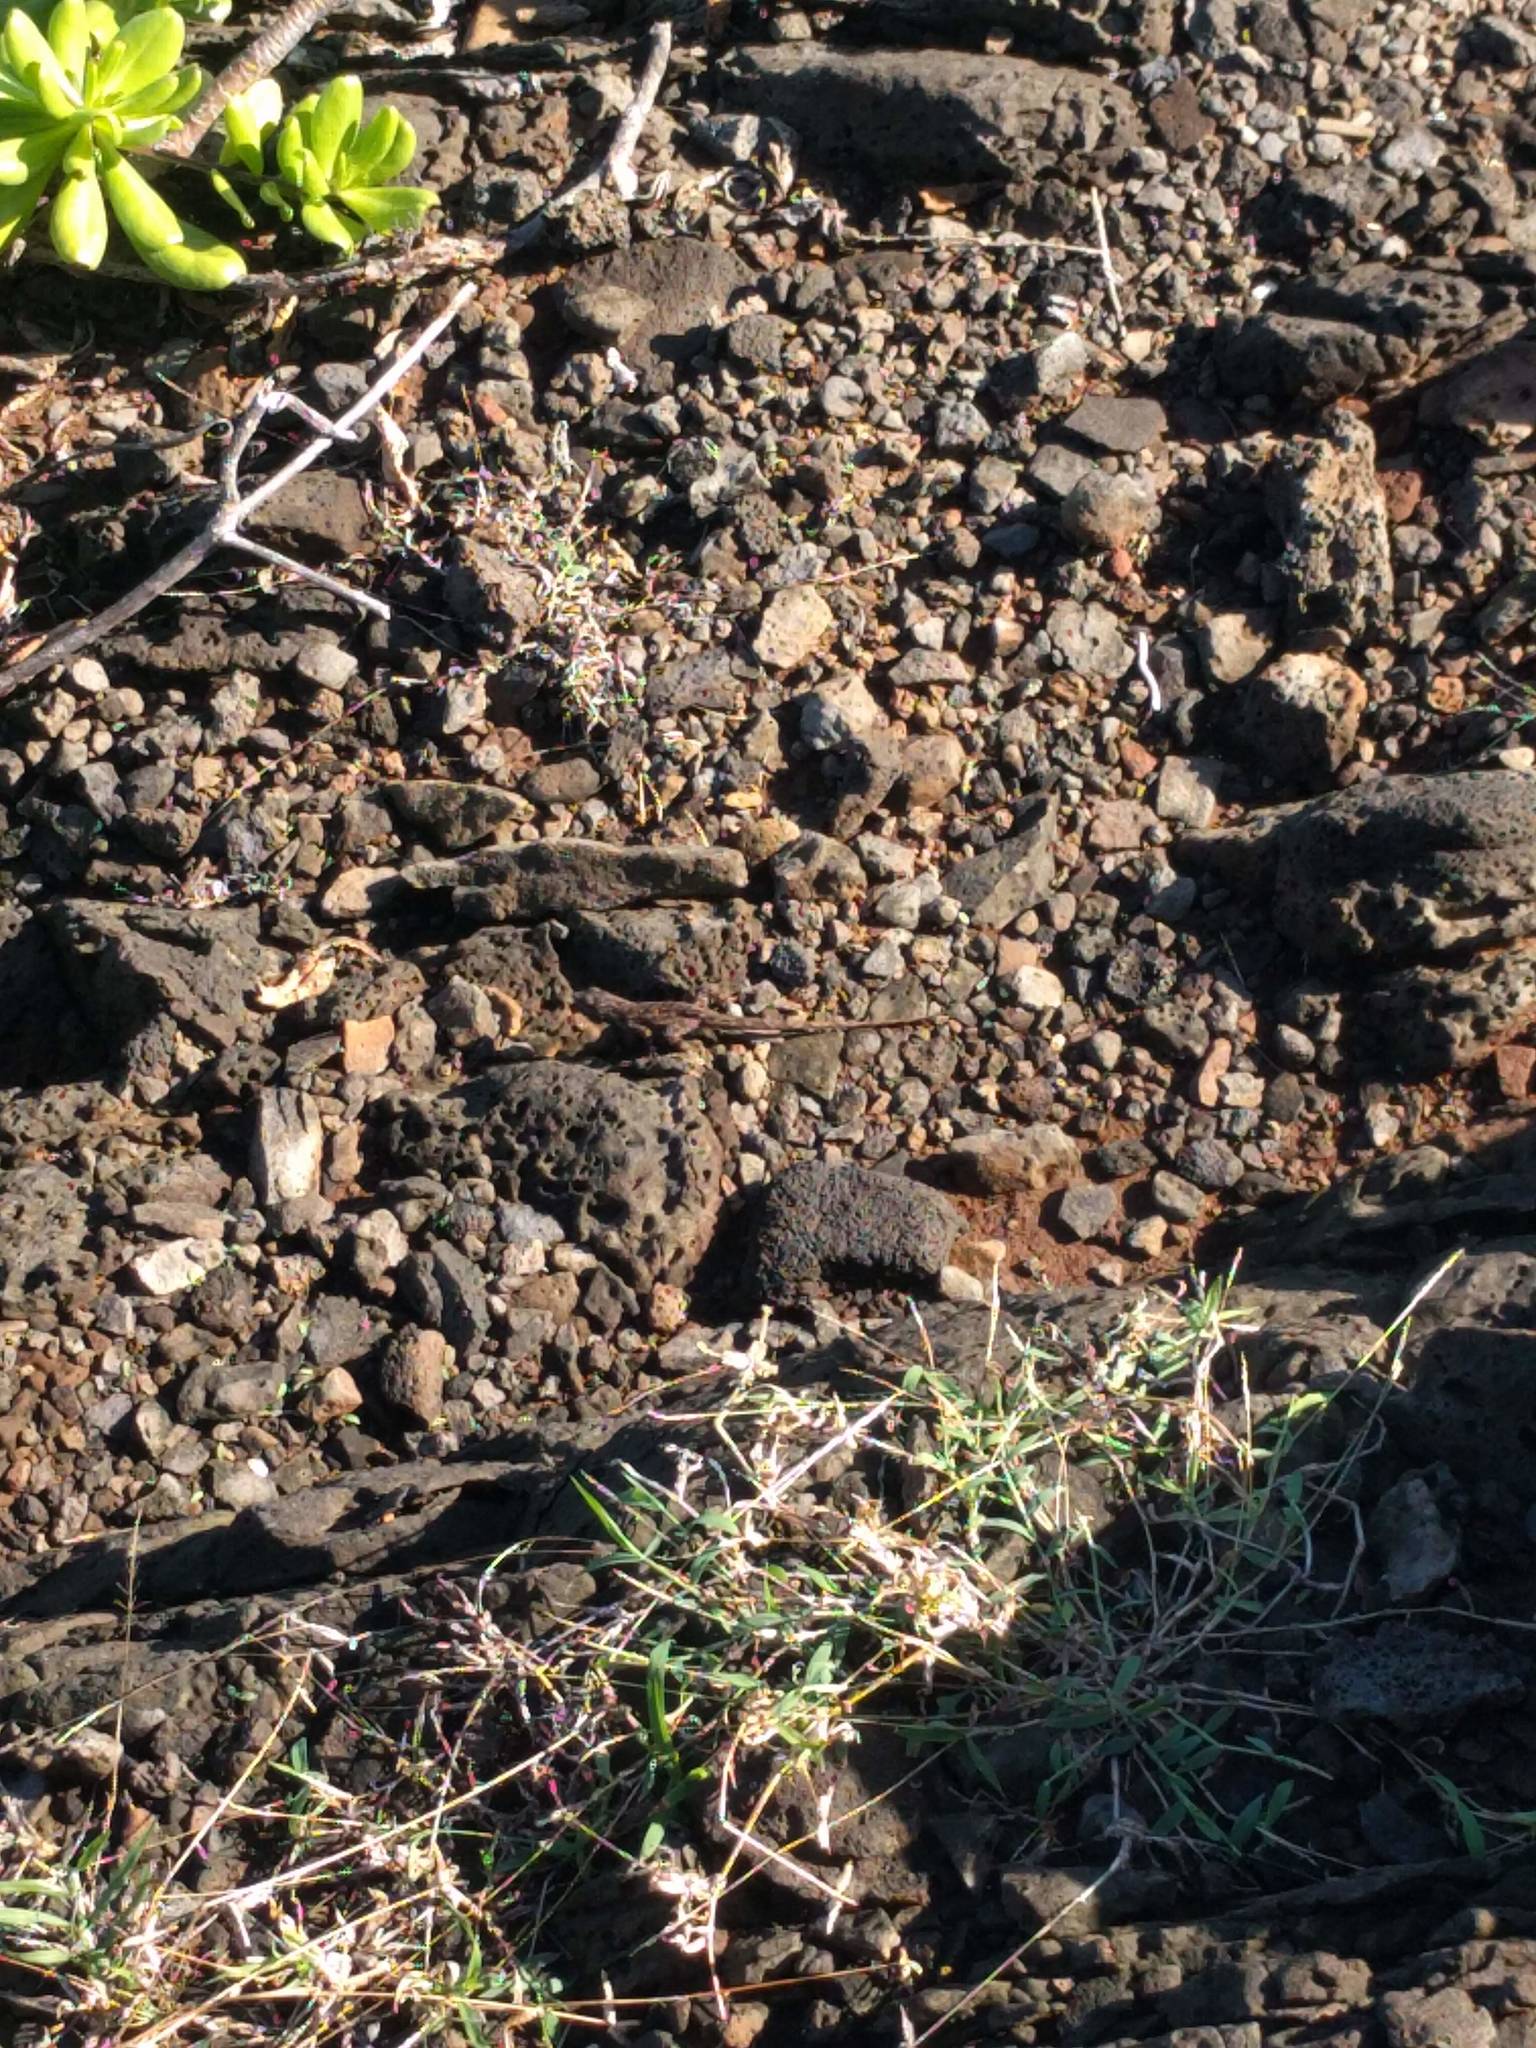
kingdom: Animalia
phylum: Chordata
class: Squamata
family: Dactyloidae
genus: Anolis
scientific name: Anolis sagrei
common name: Brown anole
